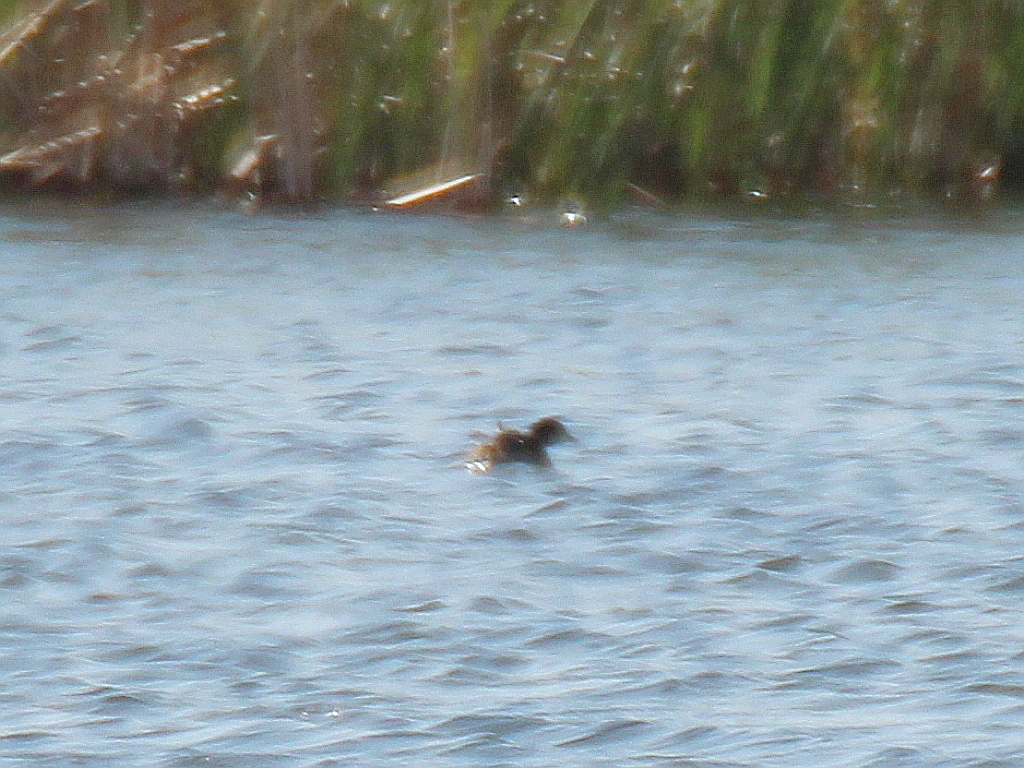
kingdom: Animalia
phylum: Chordata
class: Aves
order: Podicipediformes
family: Podicipedidae
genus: Tachybaptus
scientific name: Tachybaptus ruficollis
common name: Little grebe
